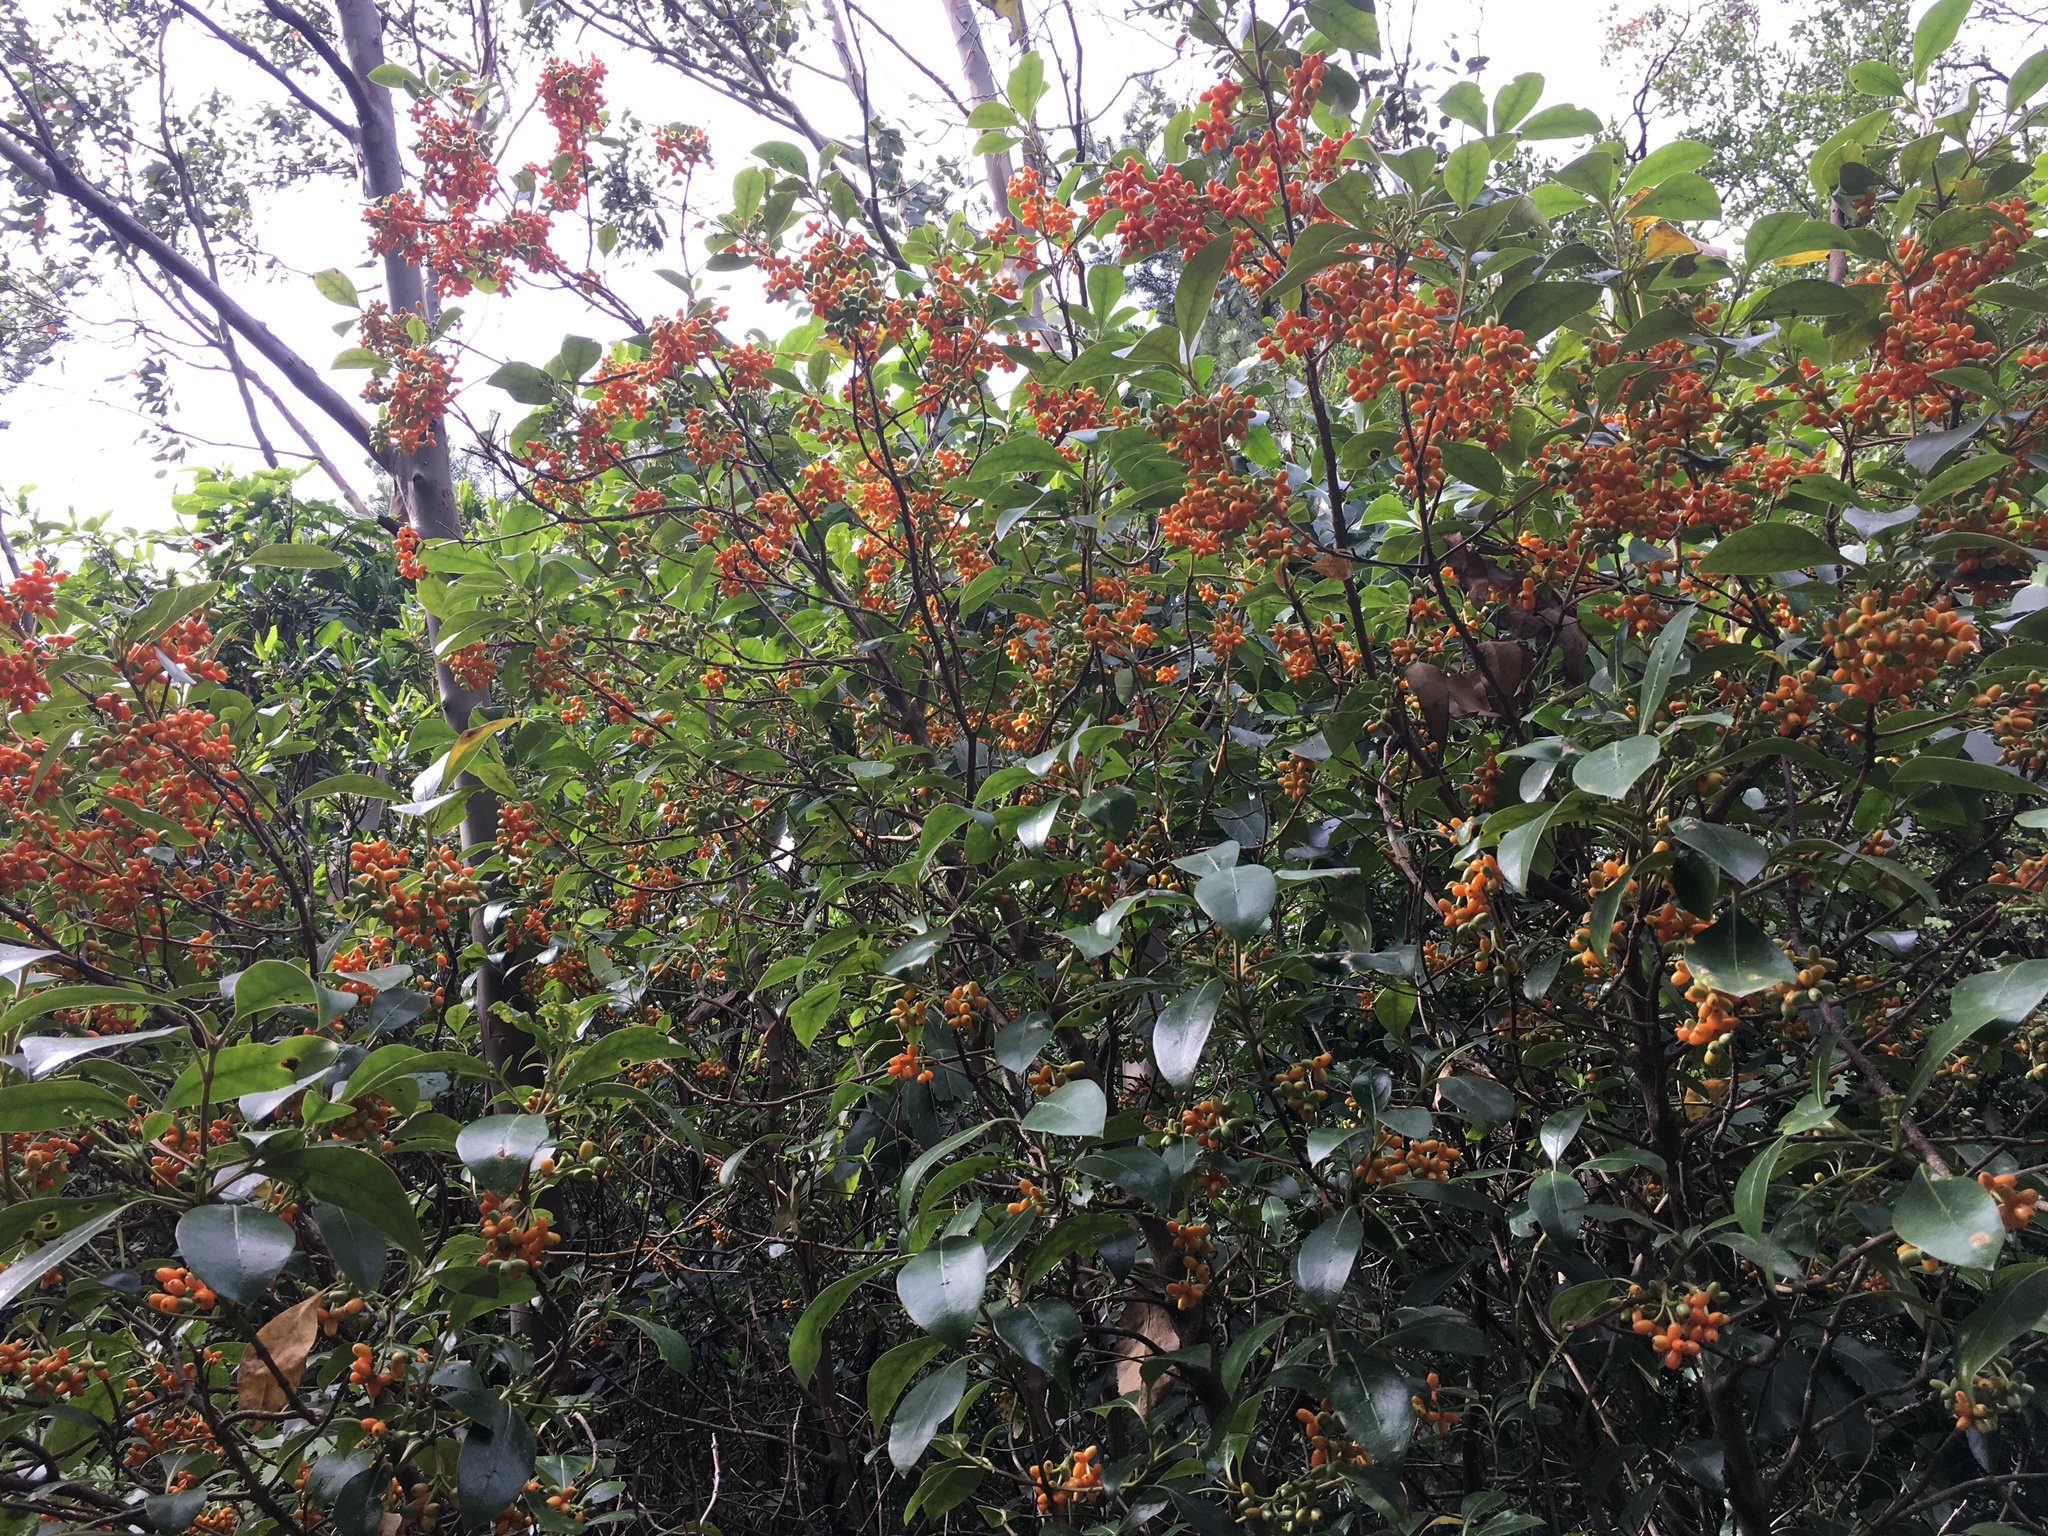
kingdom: Plantae
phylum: Tracheophyta
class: Magnoliopsida
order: Gentianales
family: Rubiaceae
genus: Coprosma
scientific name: Coprosma lucida
